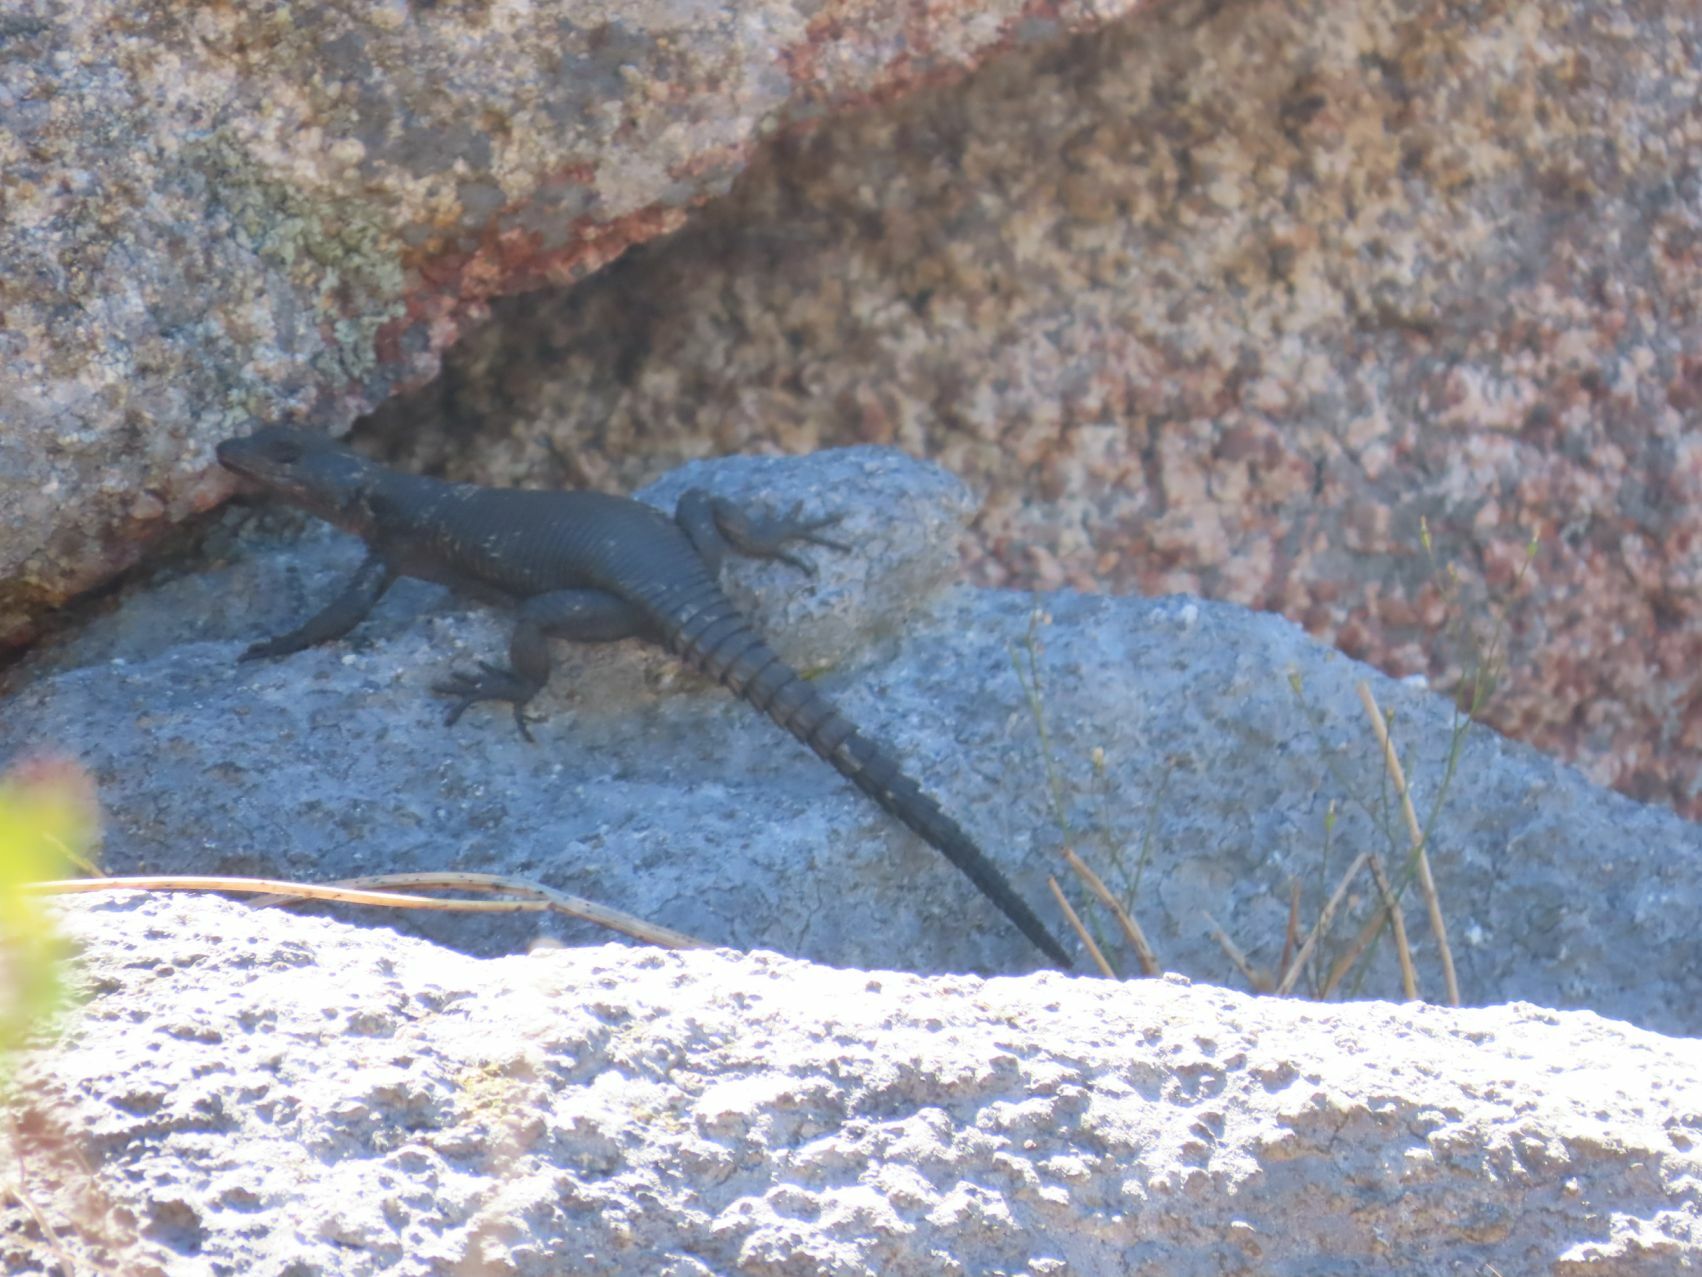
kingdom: Animalia
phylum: Chordata
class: Squamata
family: Cordylidae
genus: Karusasaurus
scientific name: Karusasaurus polyzonus
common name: Karoo girdled lizard
